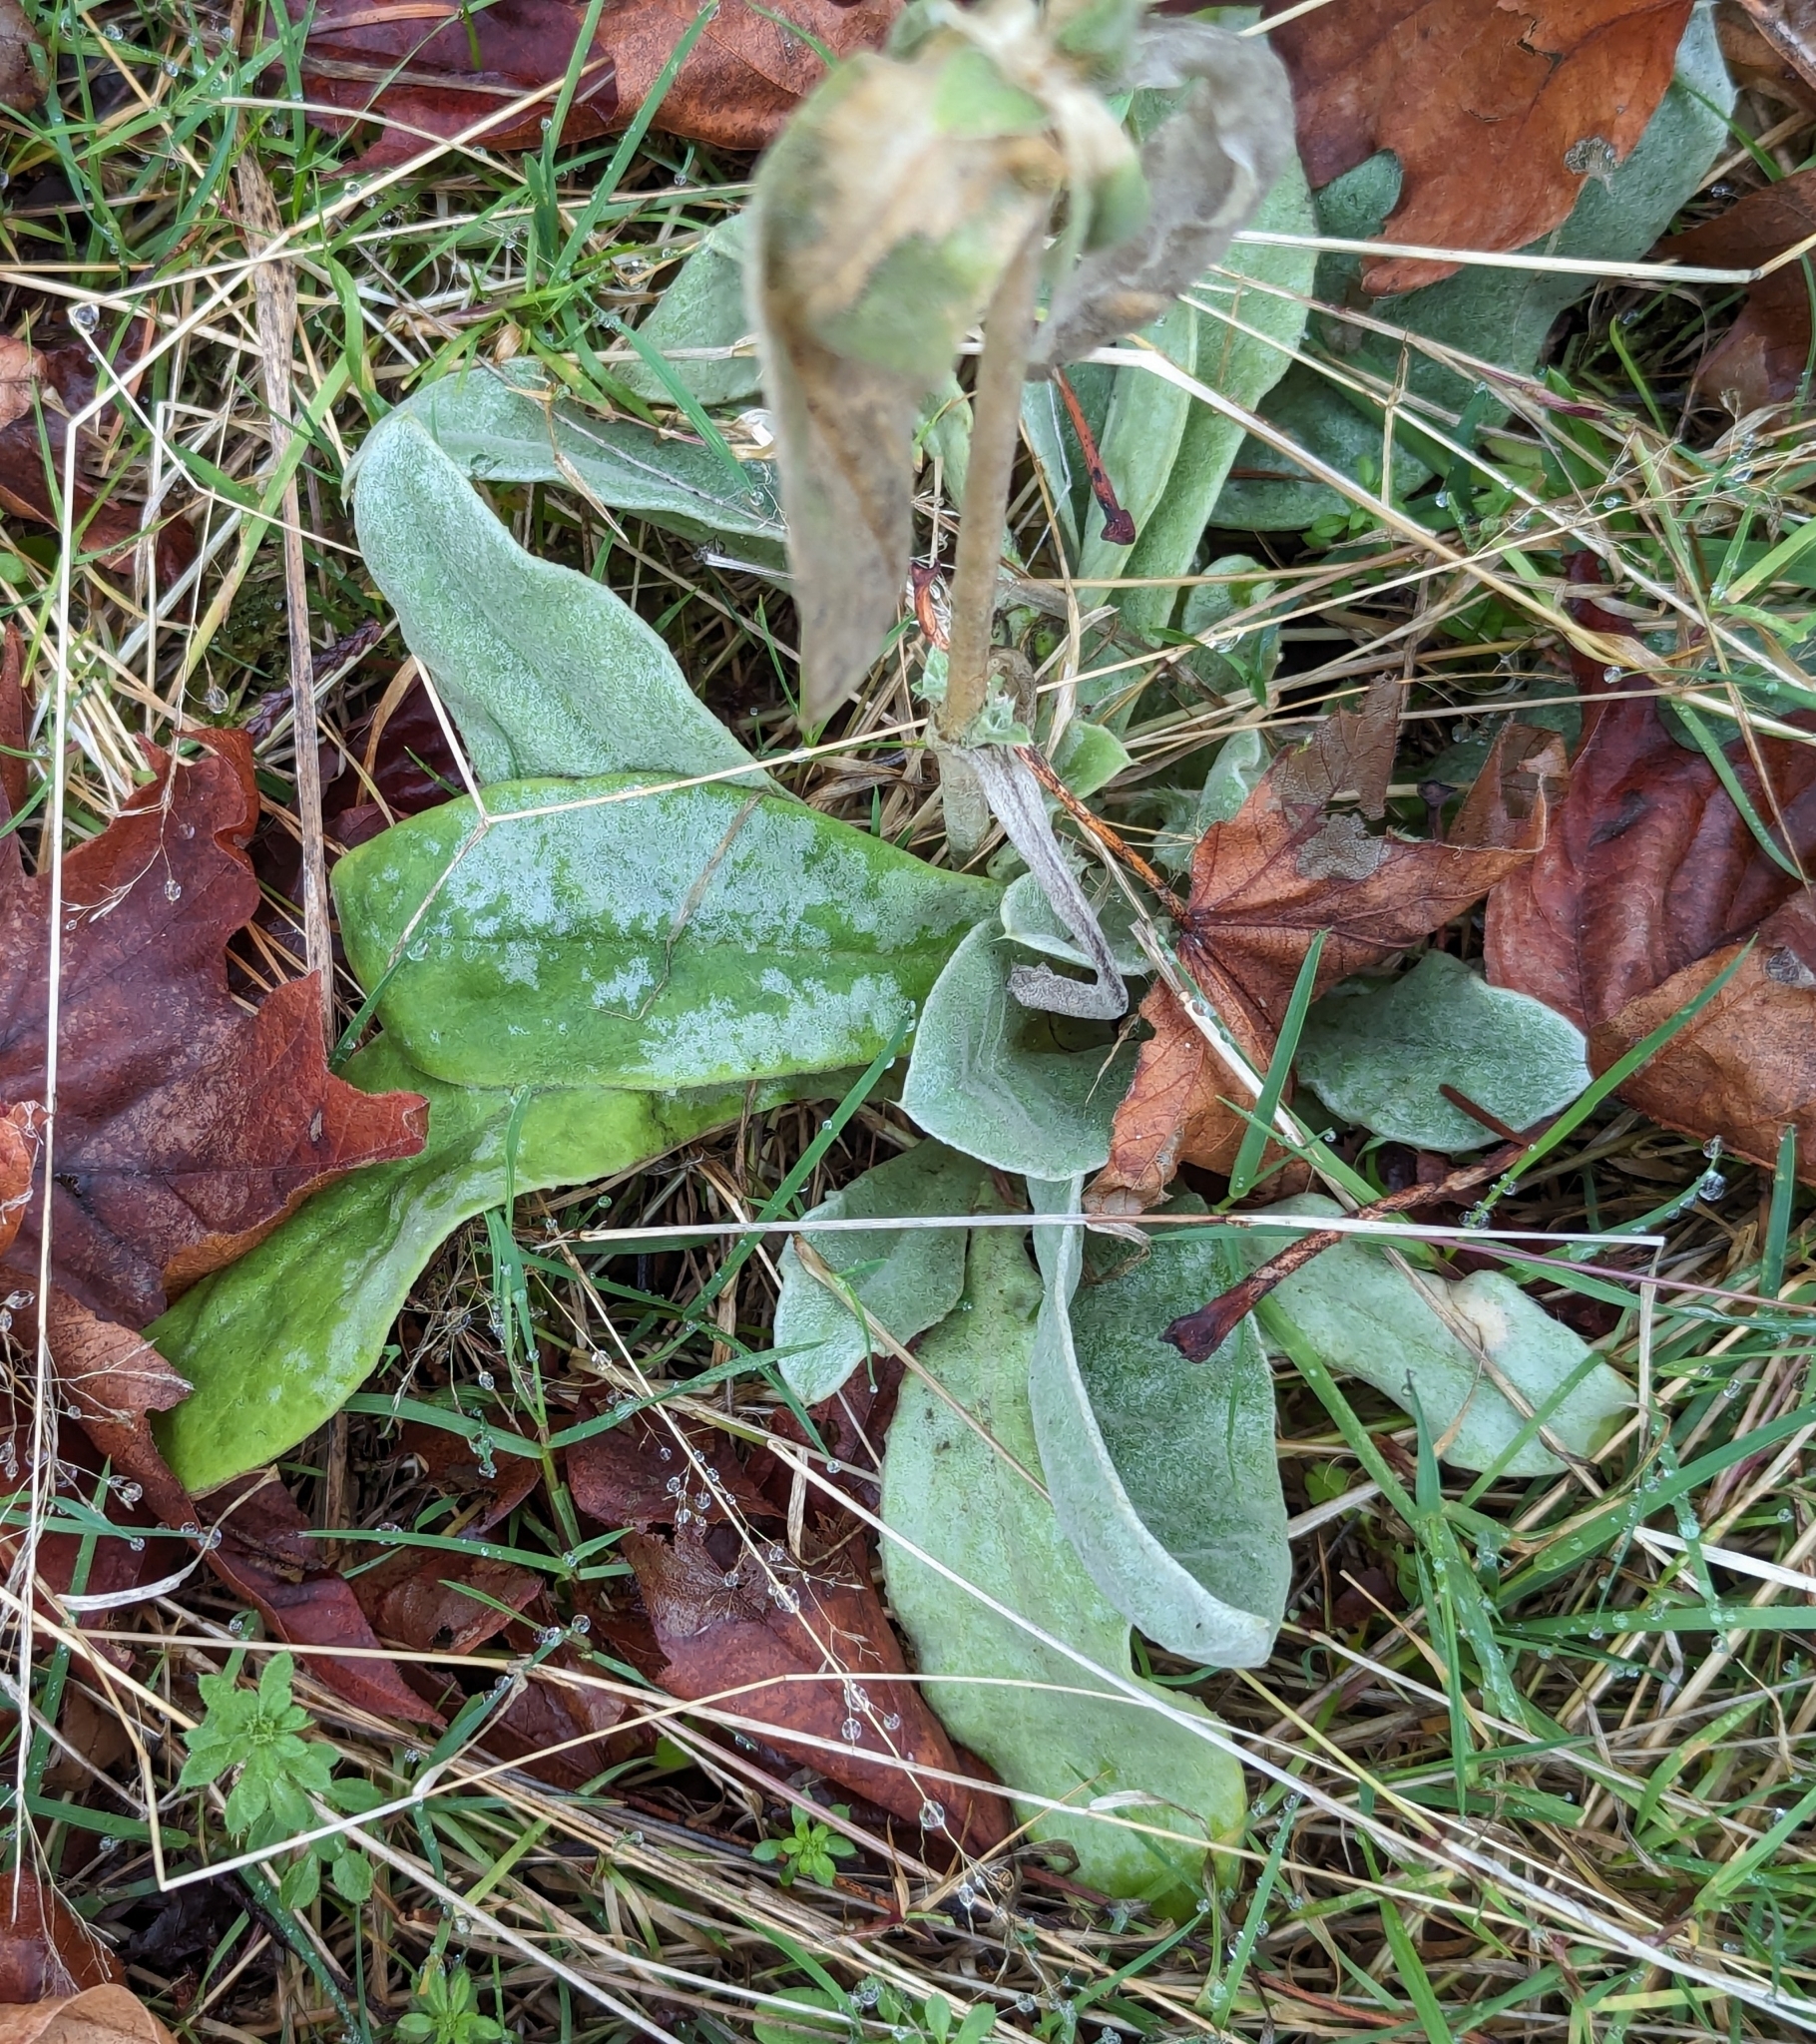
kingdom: Plantae
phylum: Tracheophyta
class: Magnoliopsida
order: Caryophyllales
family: Caryophyllaceae
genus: Silene
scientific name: Silene coronaria
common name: Rose campion
